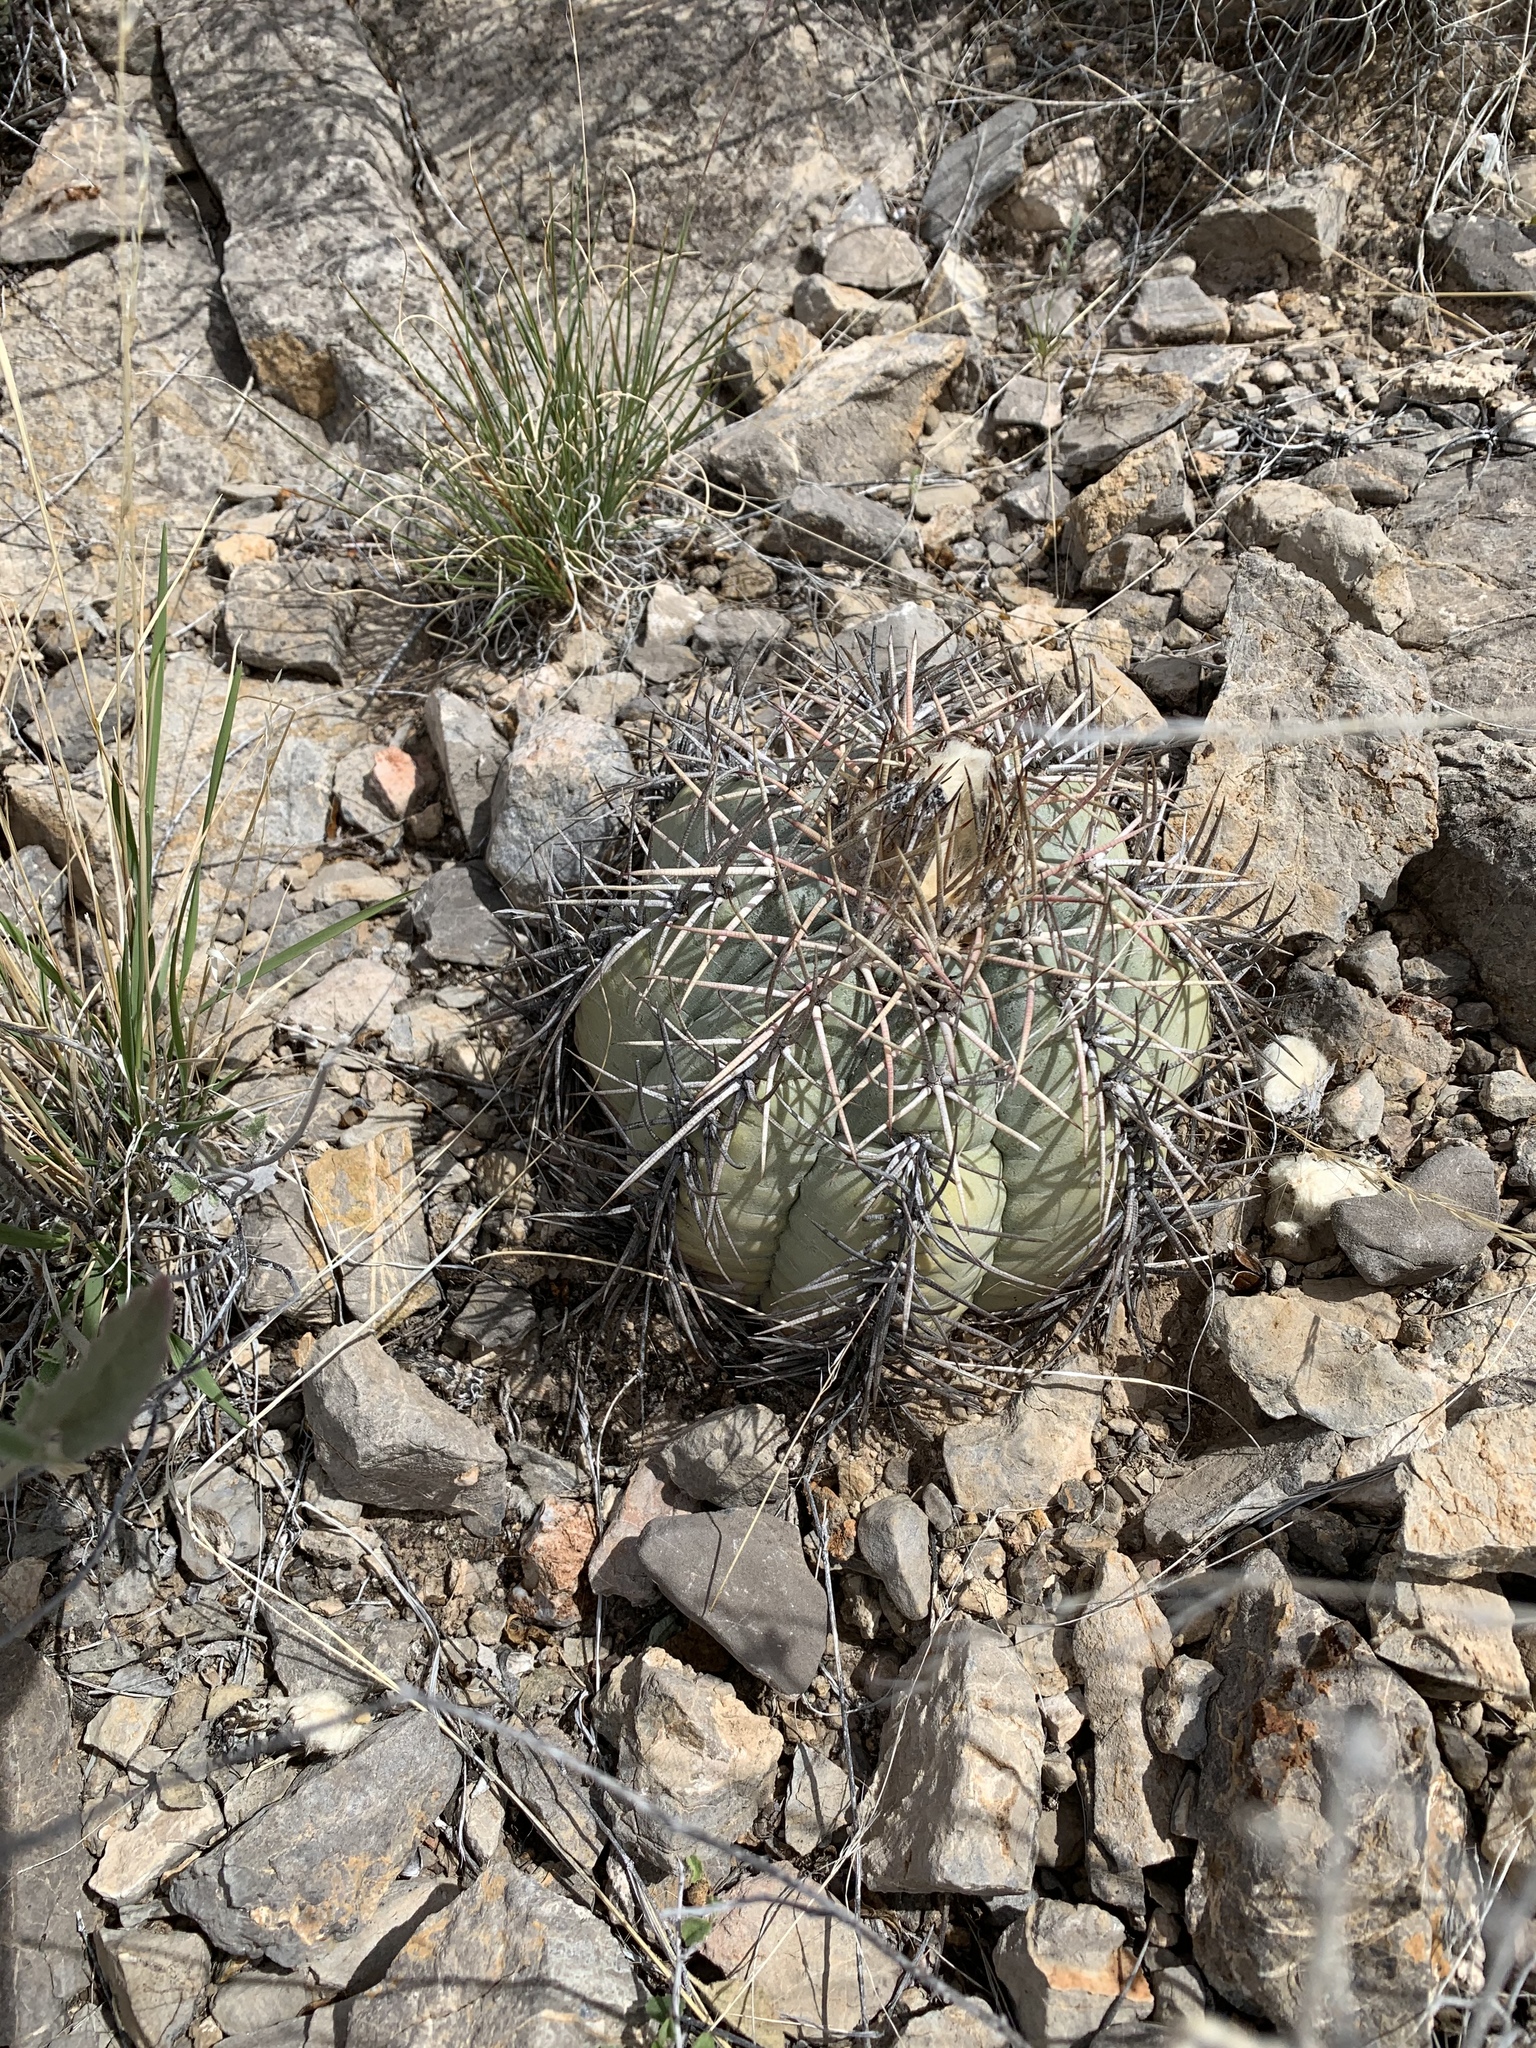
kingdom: Plantae
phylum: Tracheophyta
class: Magnoliopsida
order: Caryophyllales
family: Cactaceae
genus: Echinocactus
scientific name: Echinocactus horizonthalonius
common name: Devilshead
